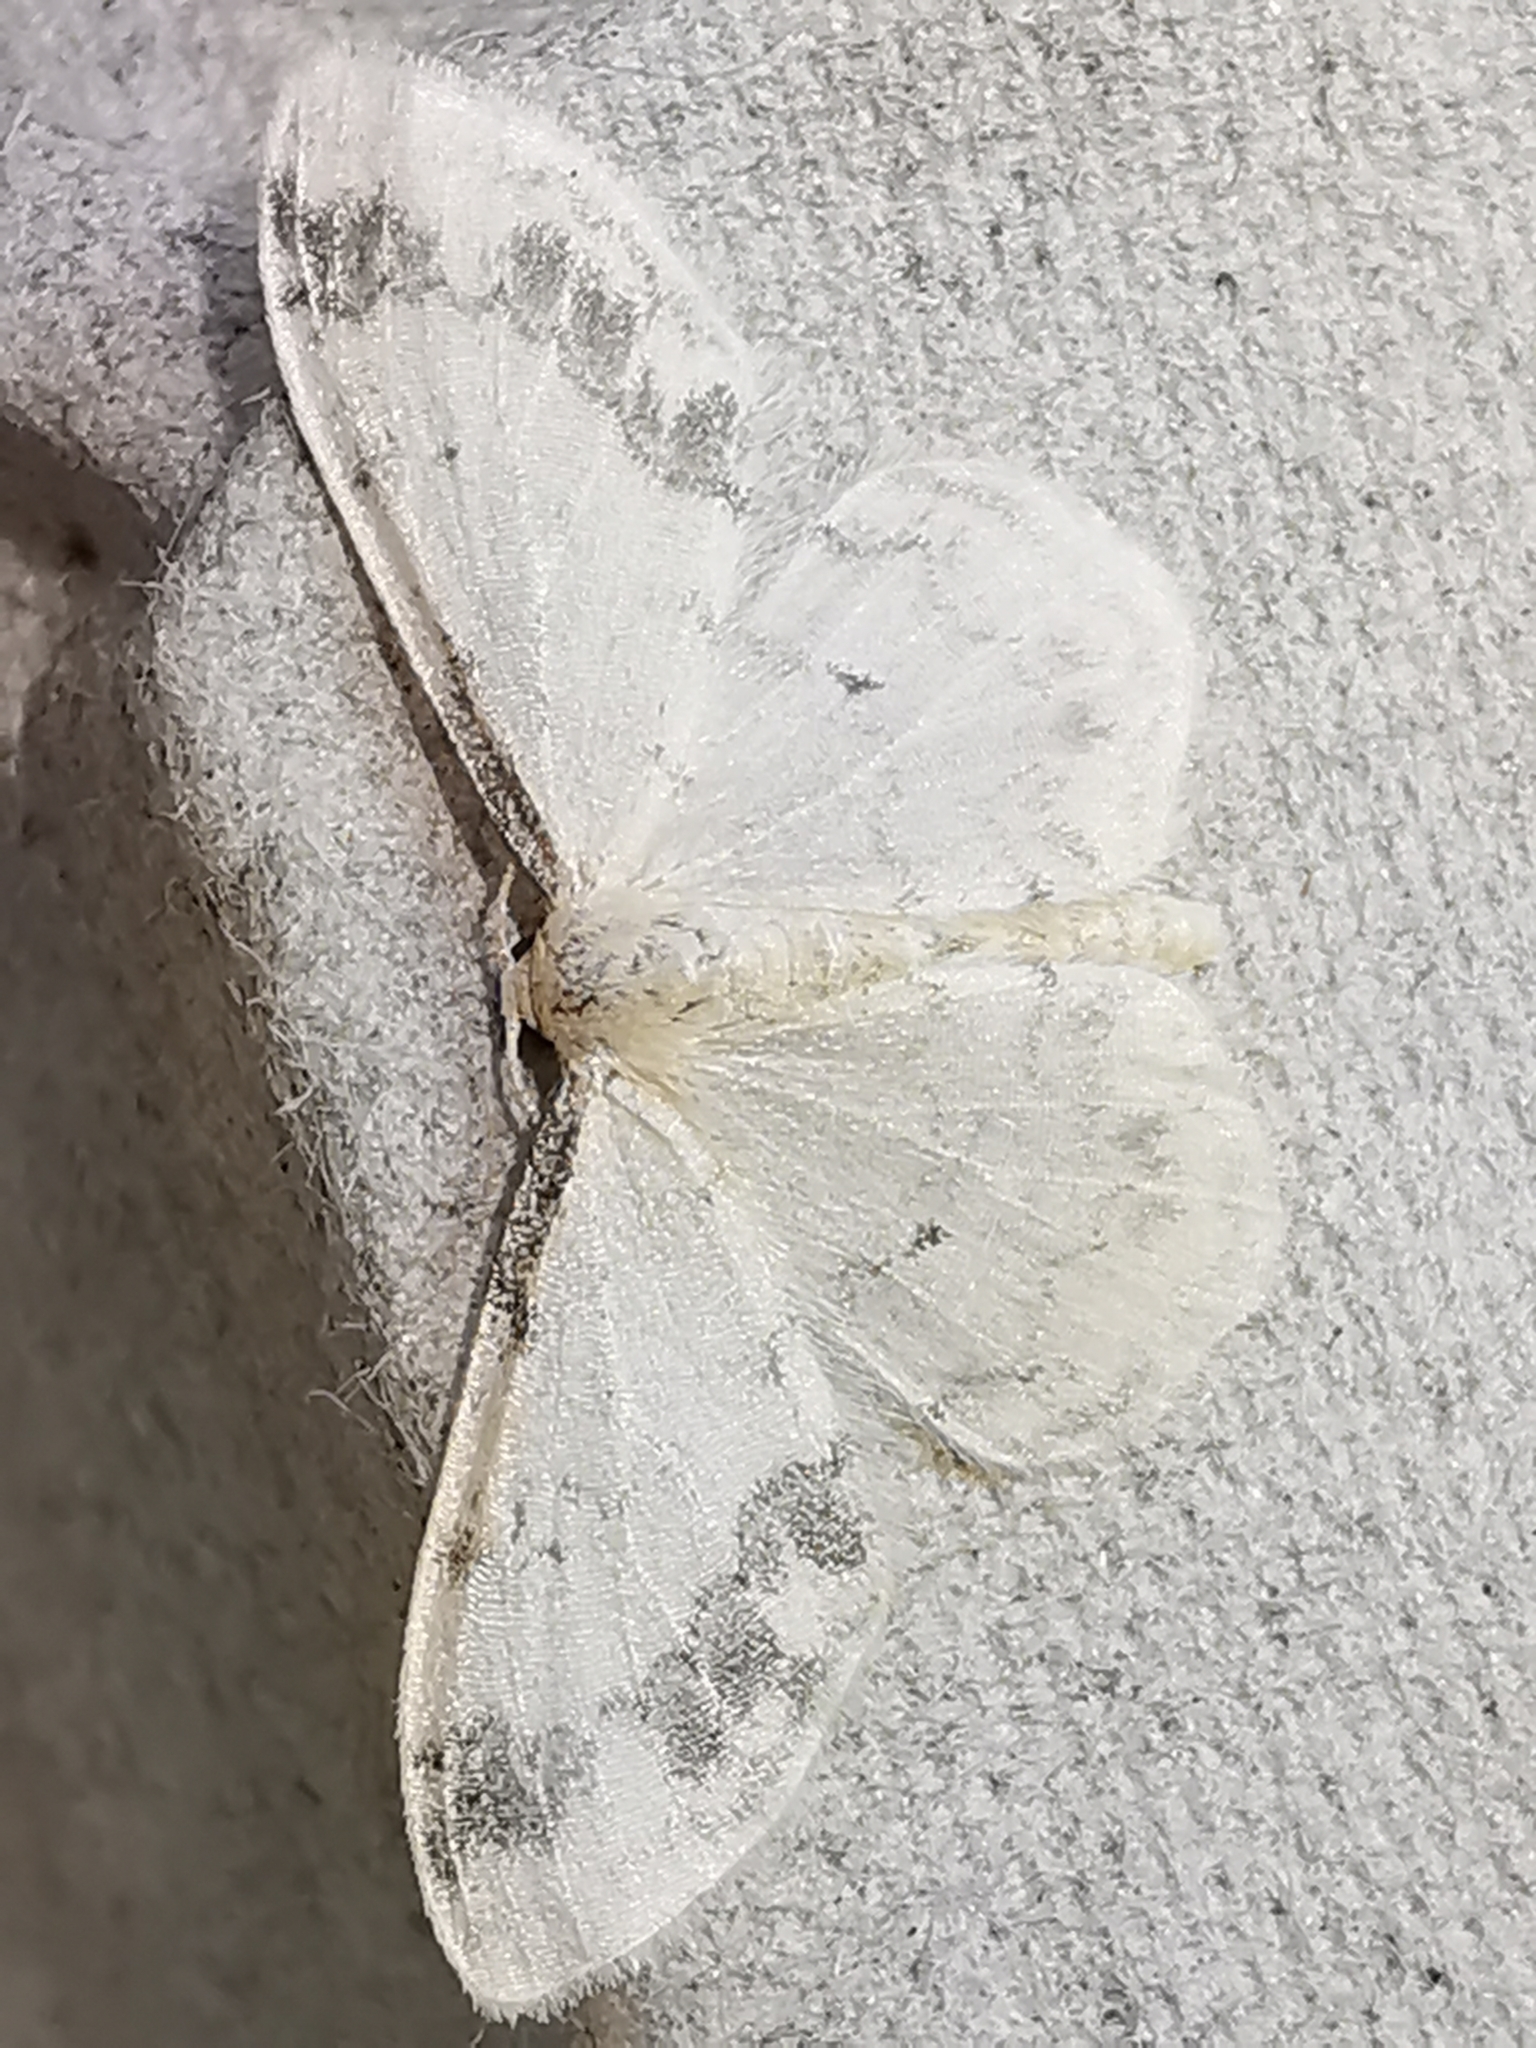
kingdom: Animalia
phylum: Arthropoda
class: Insecta
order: Lepidoptera
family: Geometridae
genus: Idaea
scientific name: Idaea trigeminata
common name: Treble brown spot
